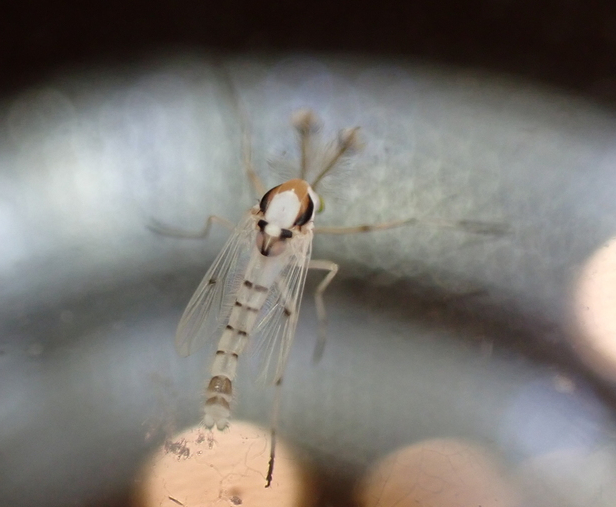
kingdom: Animalia
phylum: Arthropoda
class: Insecta
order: Diptera
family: Chironomidae
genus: Coelotanypus
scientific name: Coelotanypus concinnus
